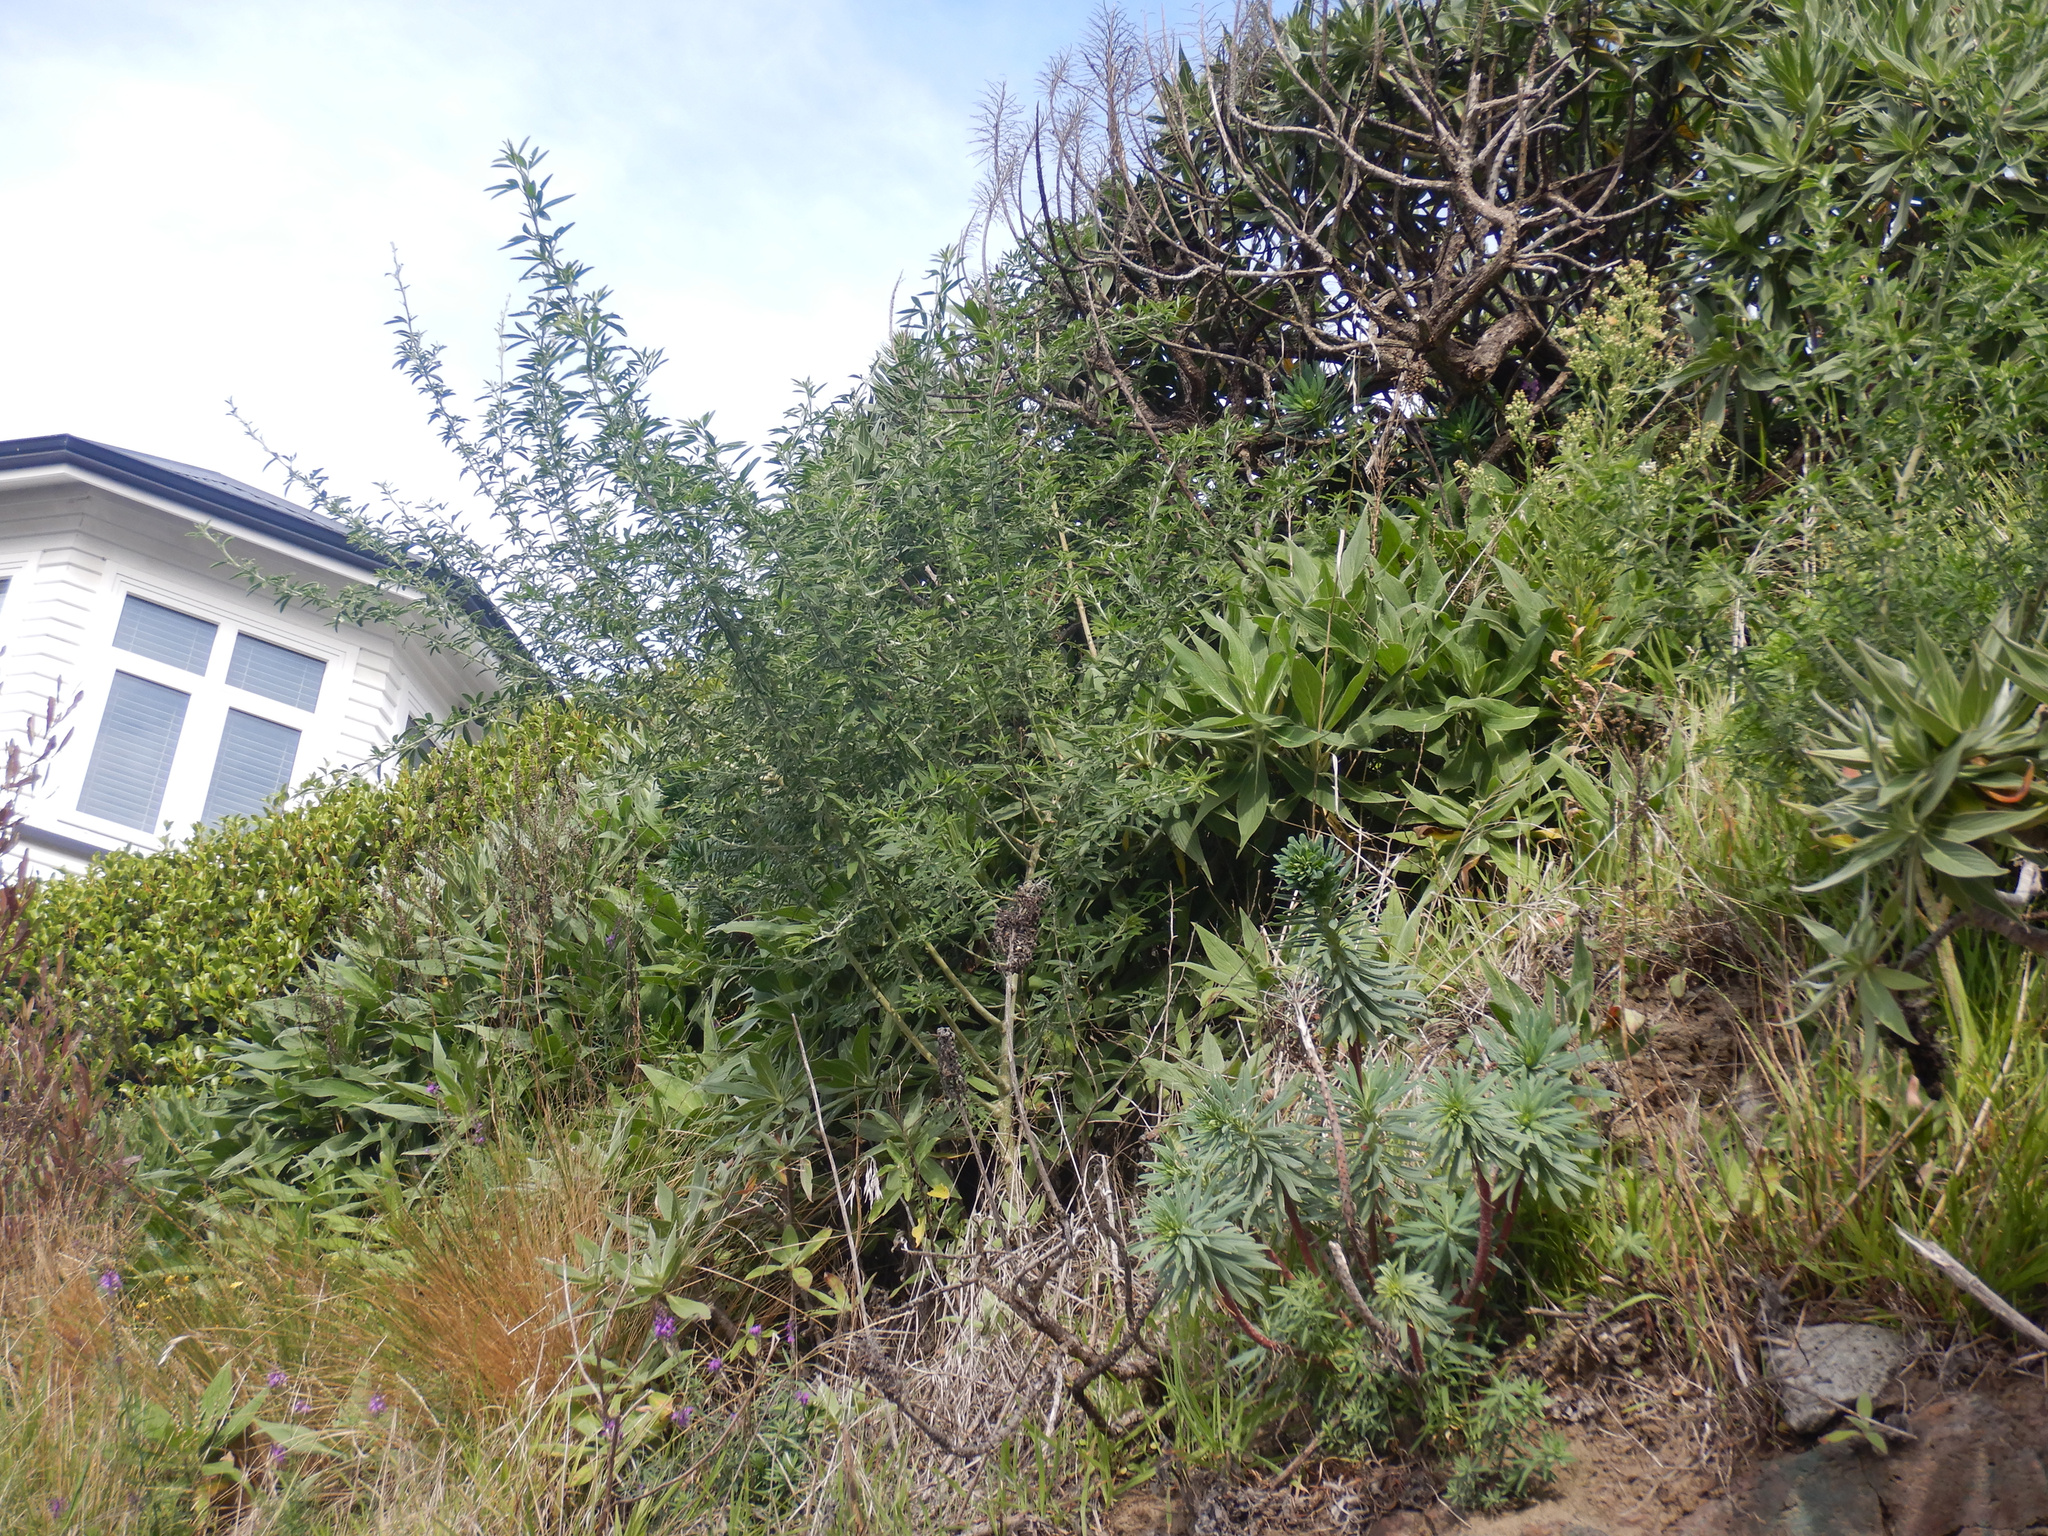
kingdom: Plantae
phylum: Tracheophyta
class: Magnoliopsida
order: Fabales
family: Fabaceae
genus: Chamaecytisus
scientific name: Chamaecytisus prolifer
